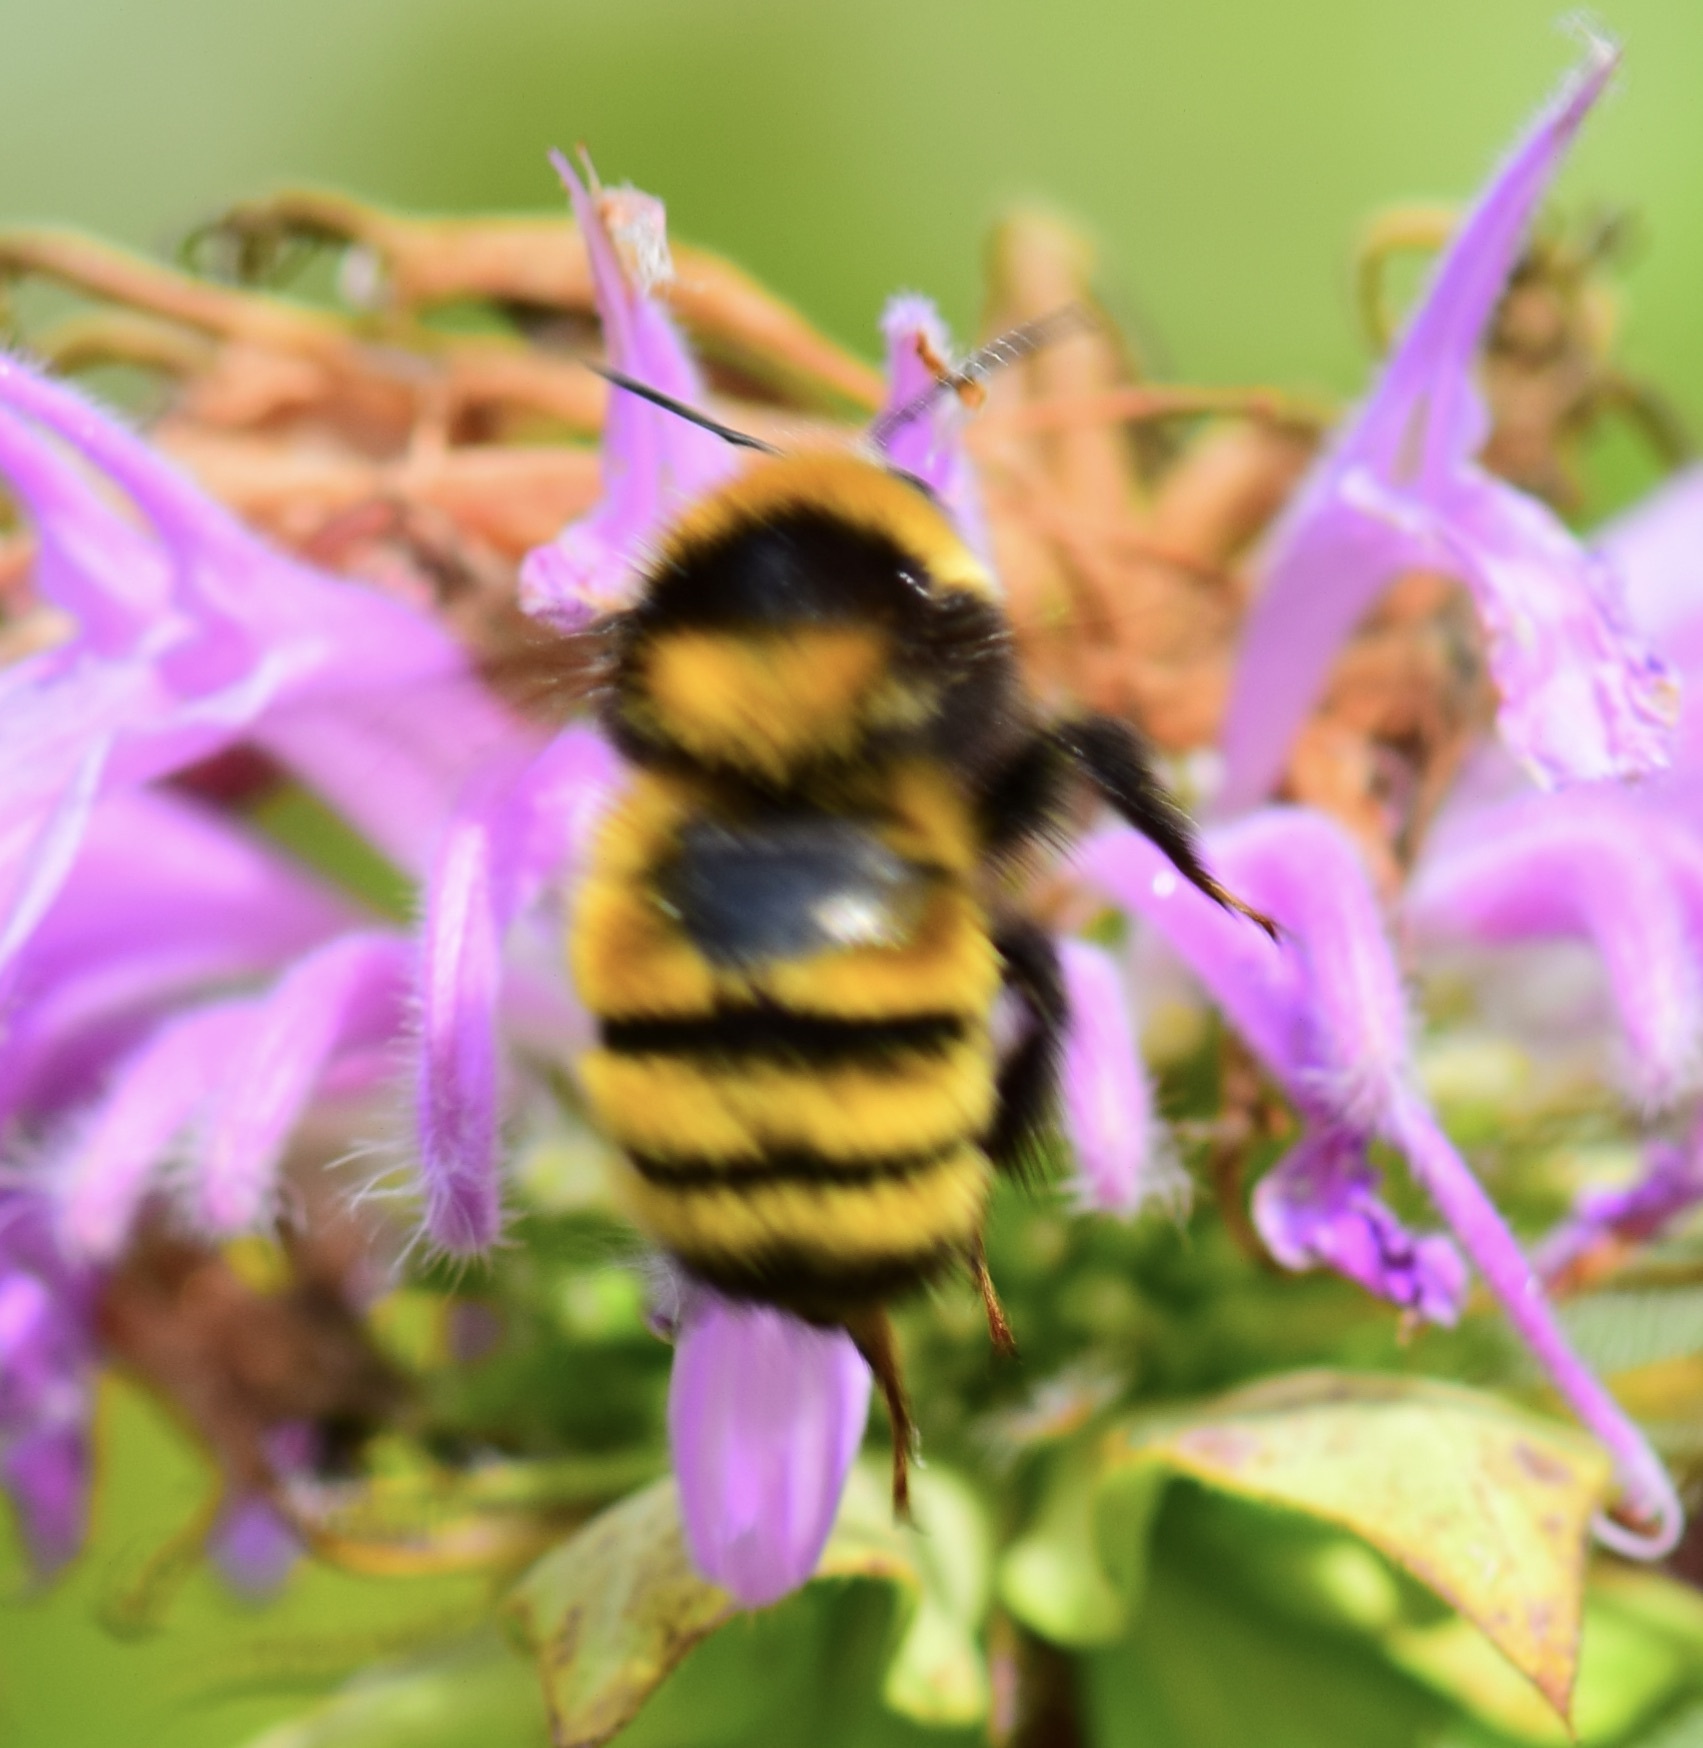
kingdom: Animalia
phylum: Arthropoda
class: Insecta
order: Hymenoptera
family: Apidae
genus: Bombus
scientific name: Bombus borealis
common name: Northern amber bumble bee
